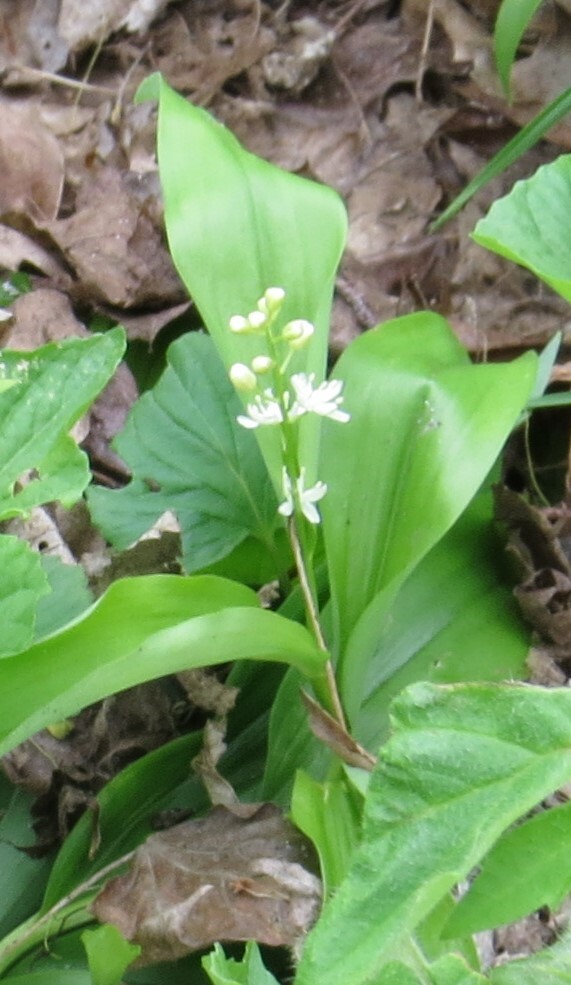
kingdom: Plantae
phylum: Tracheophyta
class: Liliopsida
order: Asparagales
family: Asparagaceae
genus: Maianthemum
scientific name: Maianthemum stellatum
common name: Little false solomon's seal
